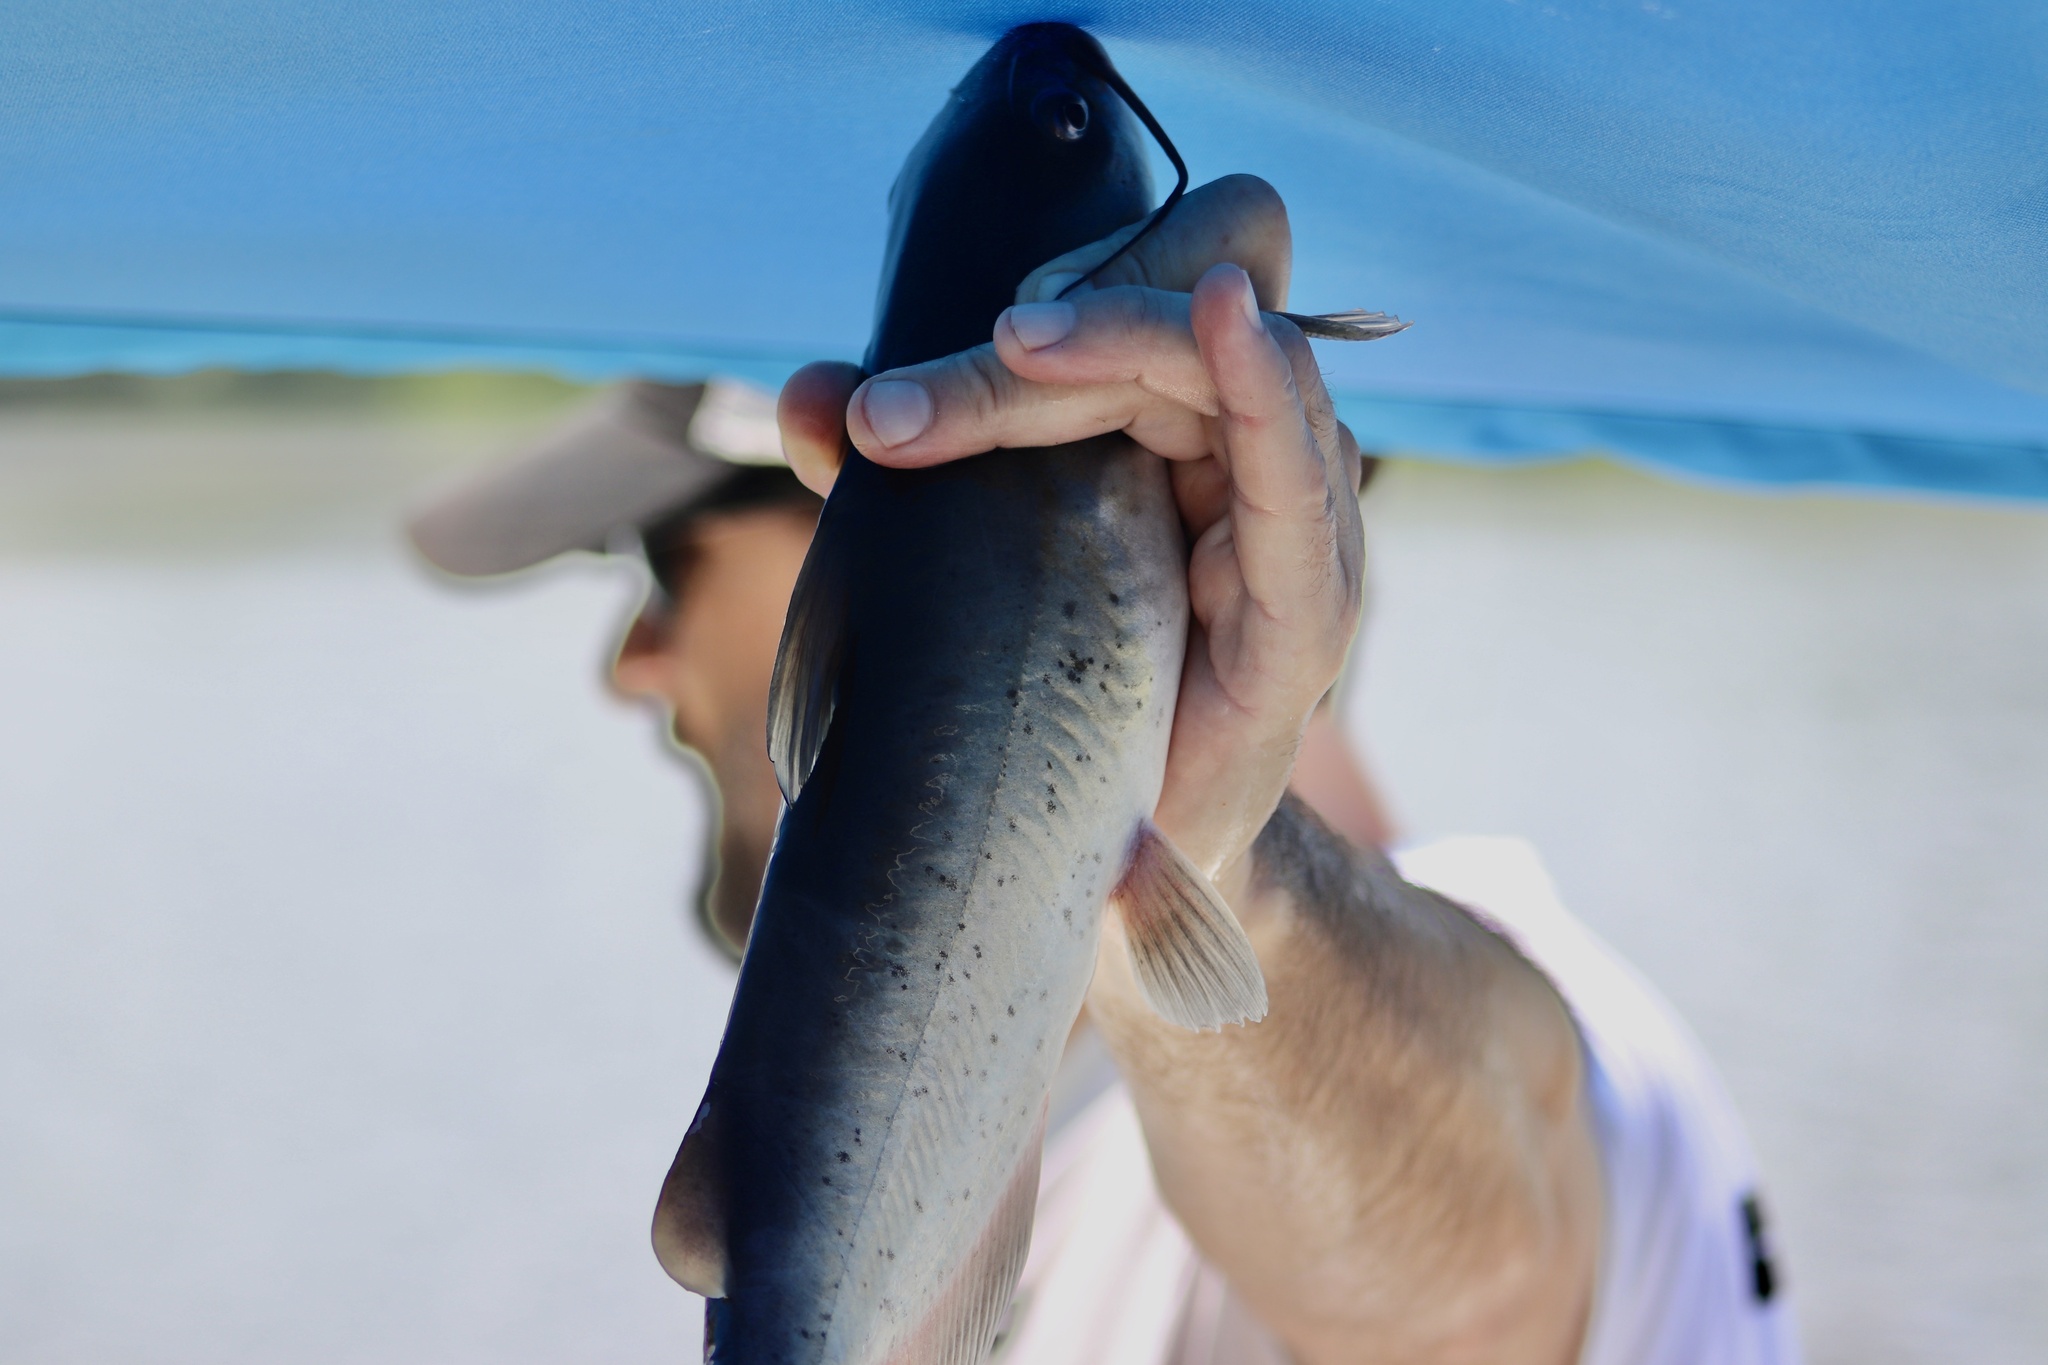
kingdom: Animalia
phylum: Chordata
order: Siluriformes
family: Ictaluridae
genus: Ictalurus
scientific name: Ictalurus punctatus
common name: Channel catfish
